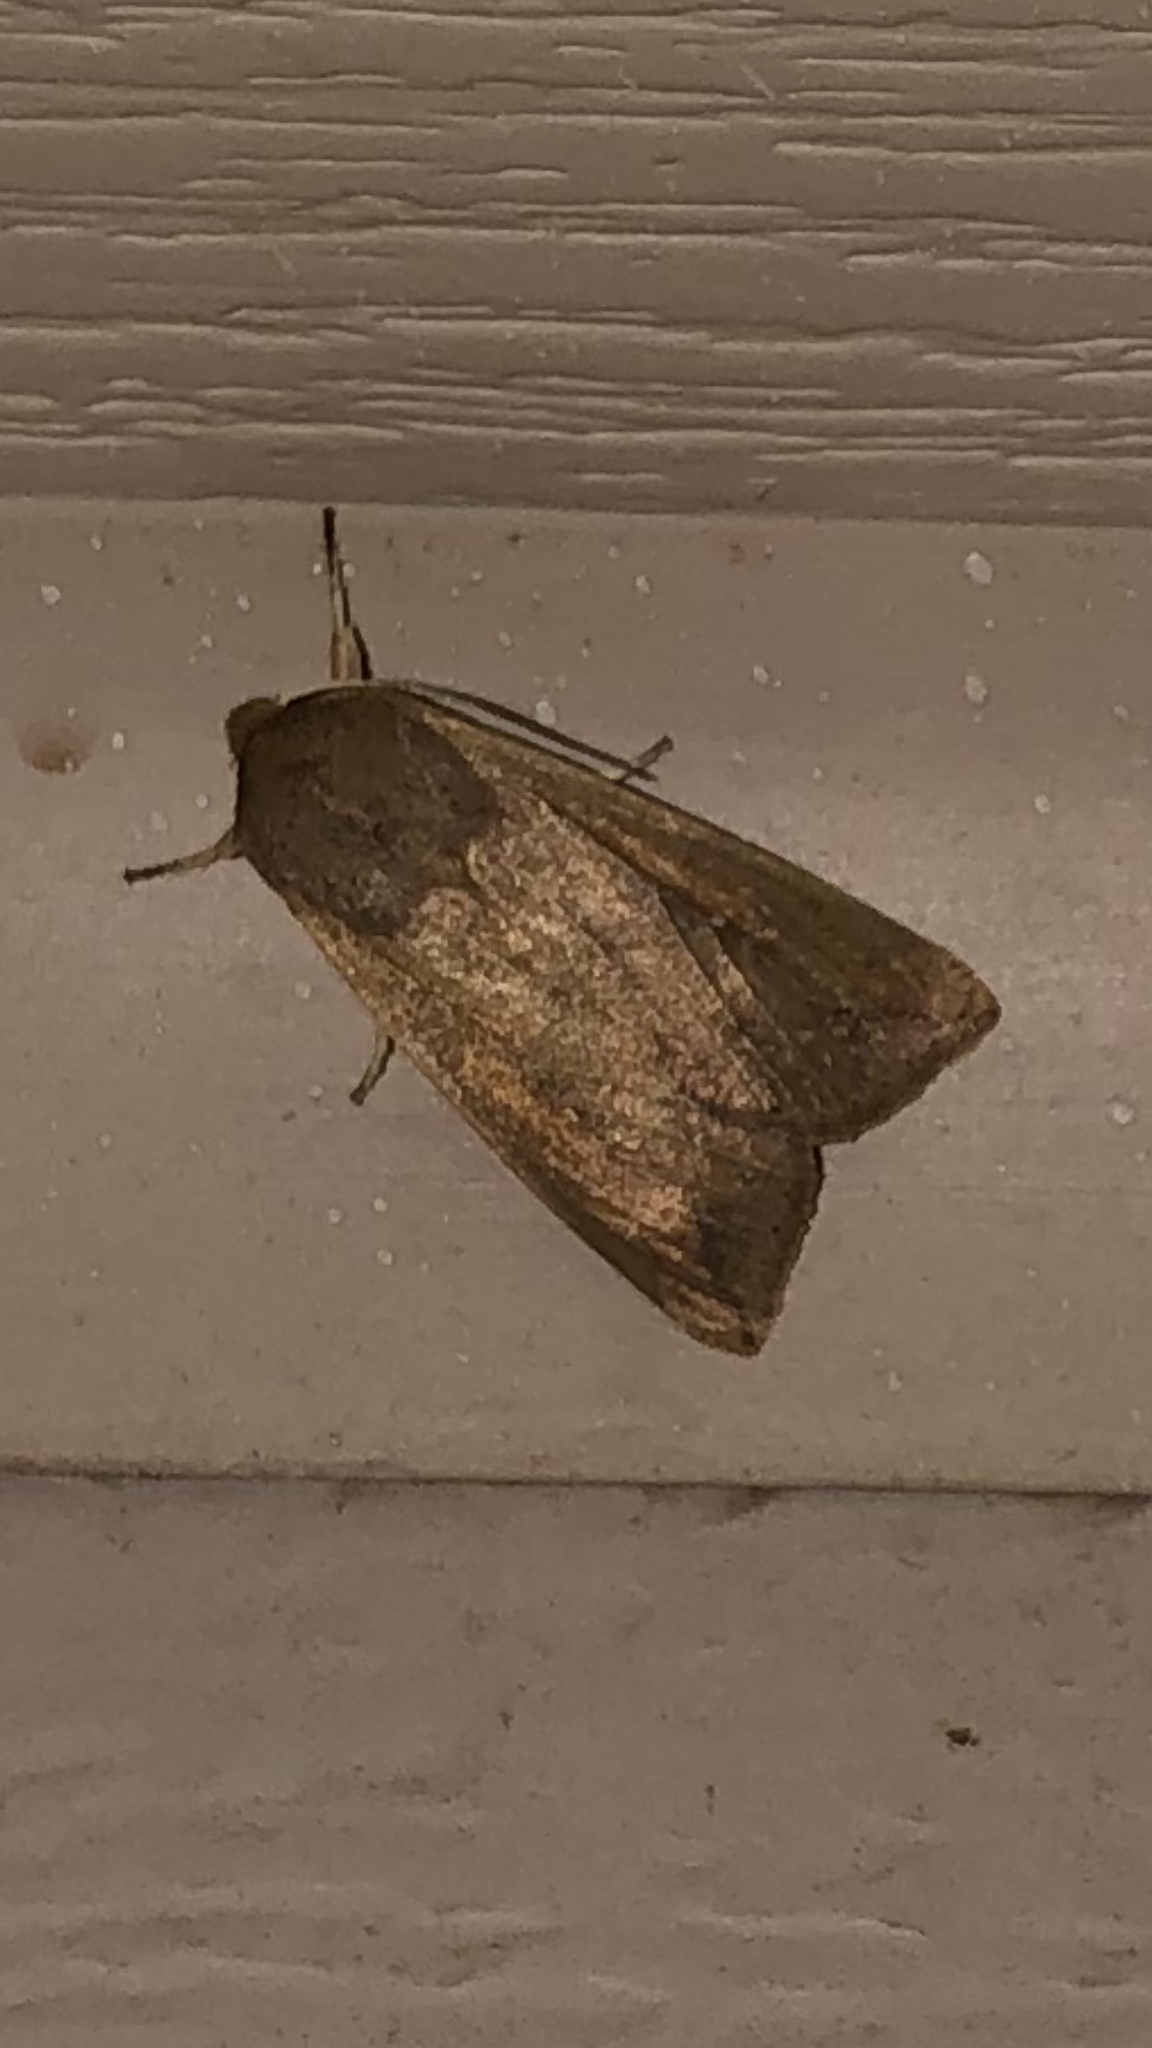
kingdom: Animalia
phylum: Arthropoda
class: Insecta
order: Lepidoptera
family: Noctuidae
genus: Mythimna
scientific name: Mythimna unipuncta
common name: White-speck
